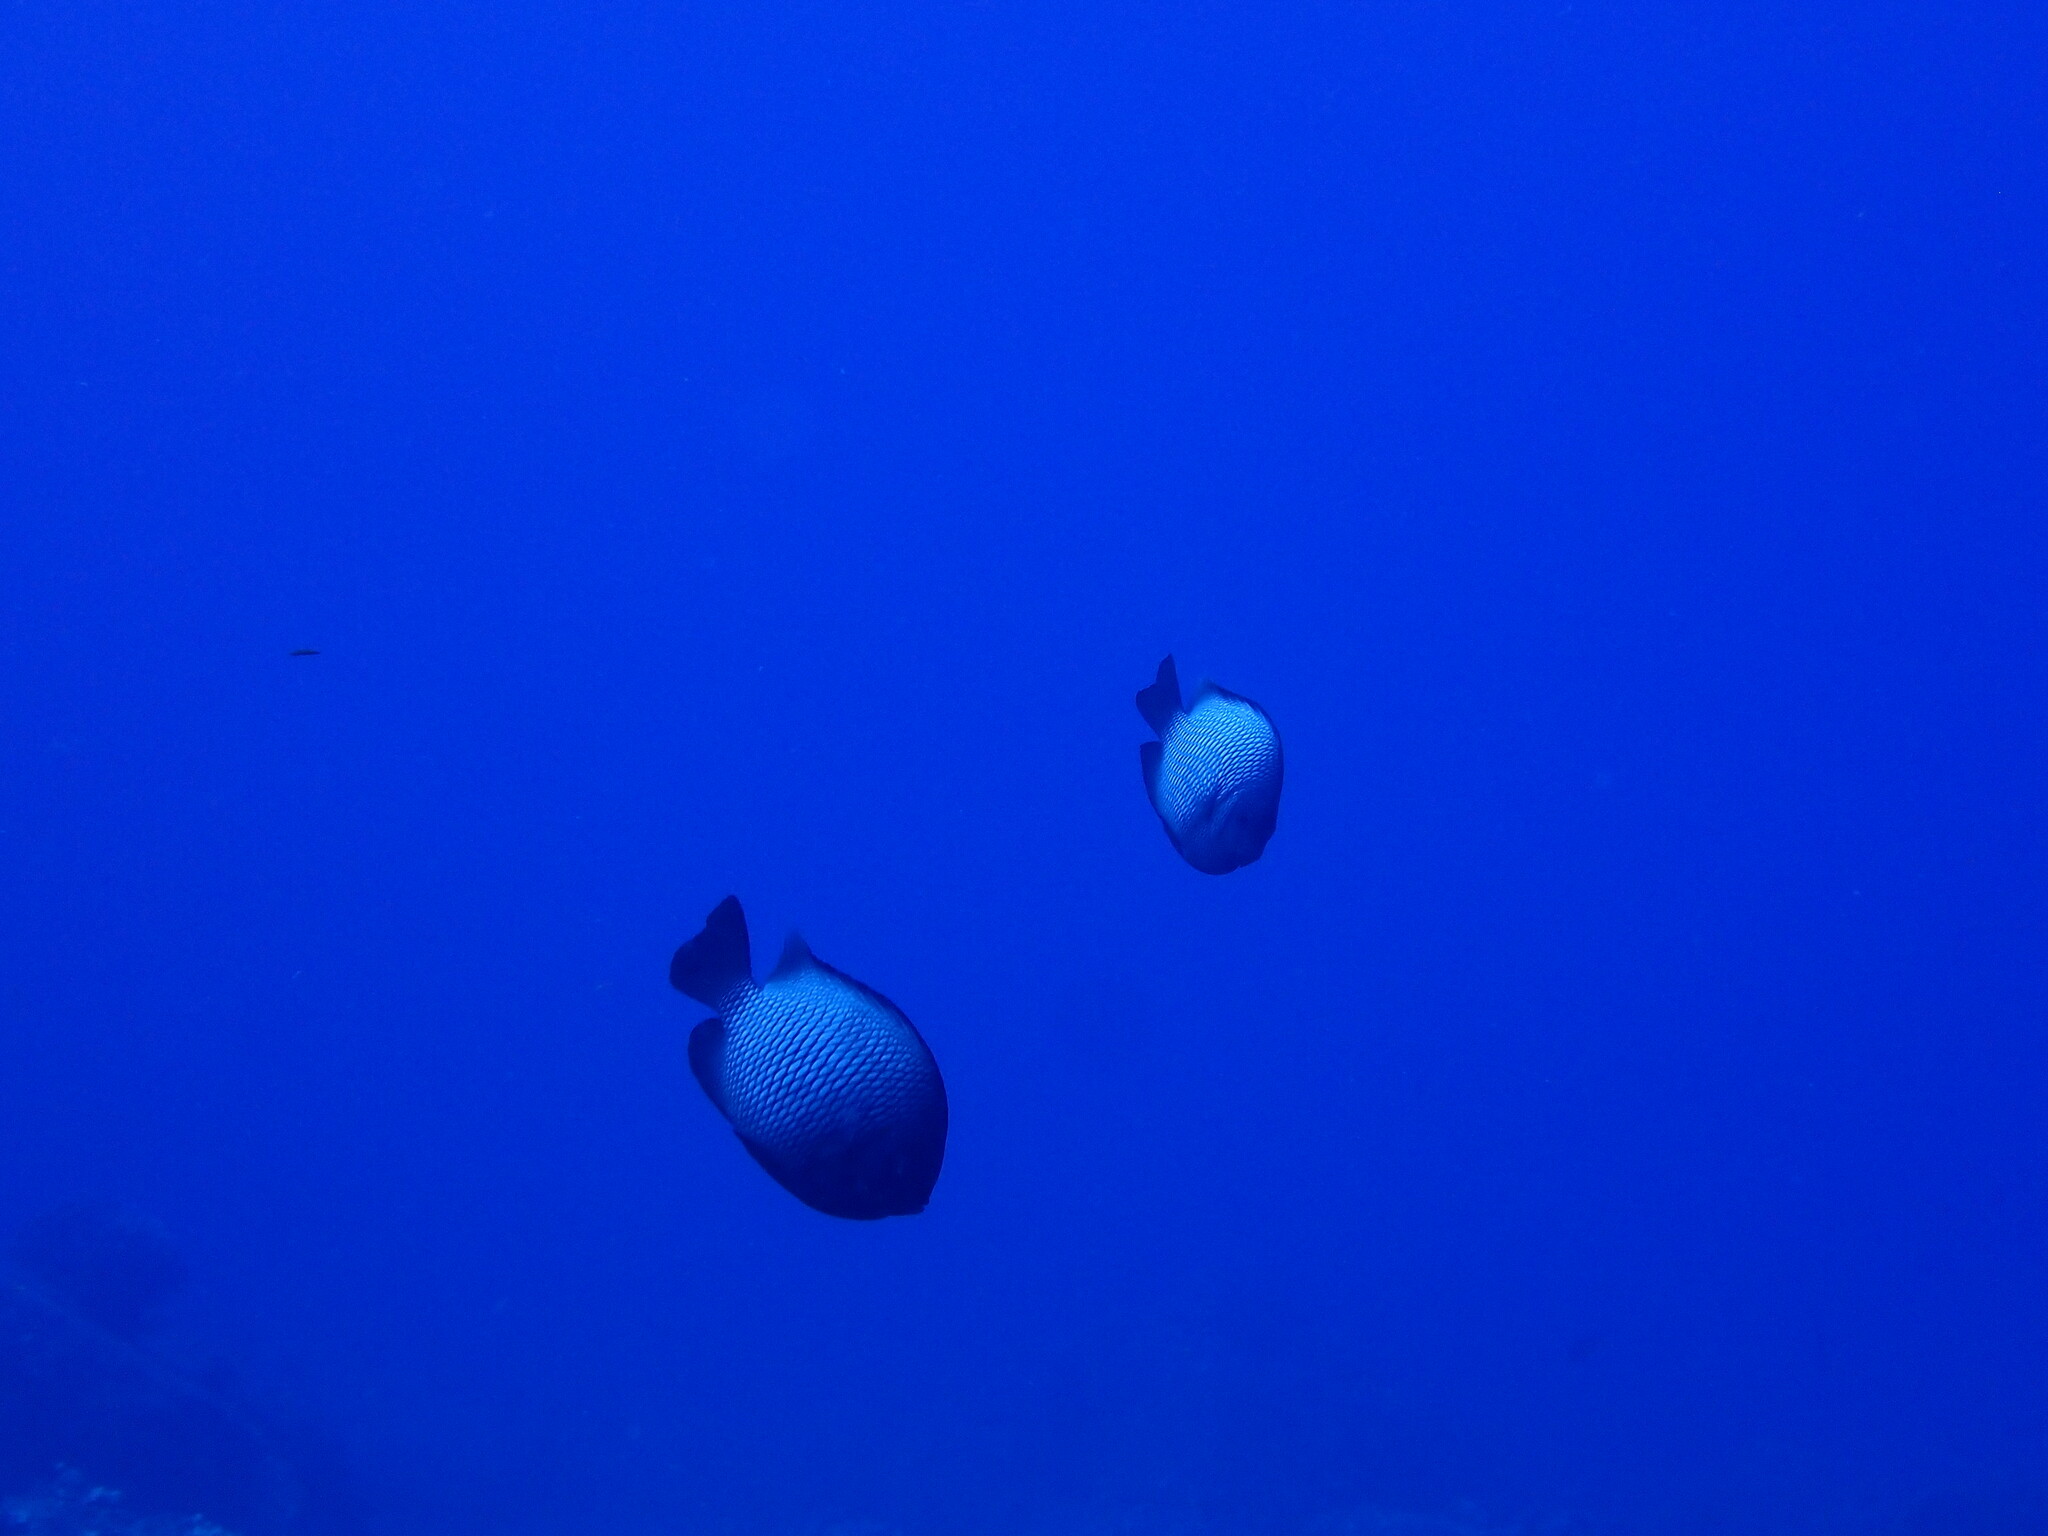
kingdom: Animalia
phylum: Chordata
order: Perciformes
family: Pomacentridae
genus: Dascyllus
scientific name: Dascyllus albisella
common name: Hawaiian dascyllus
